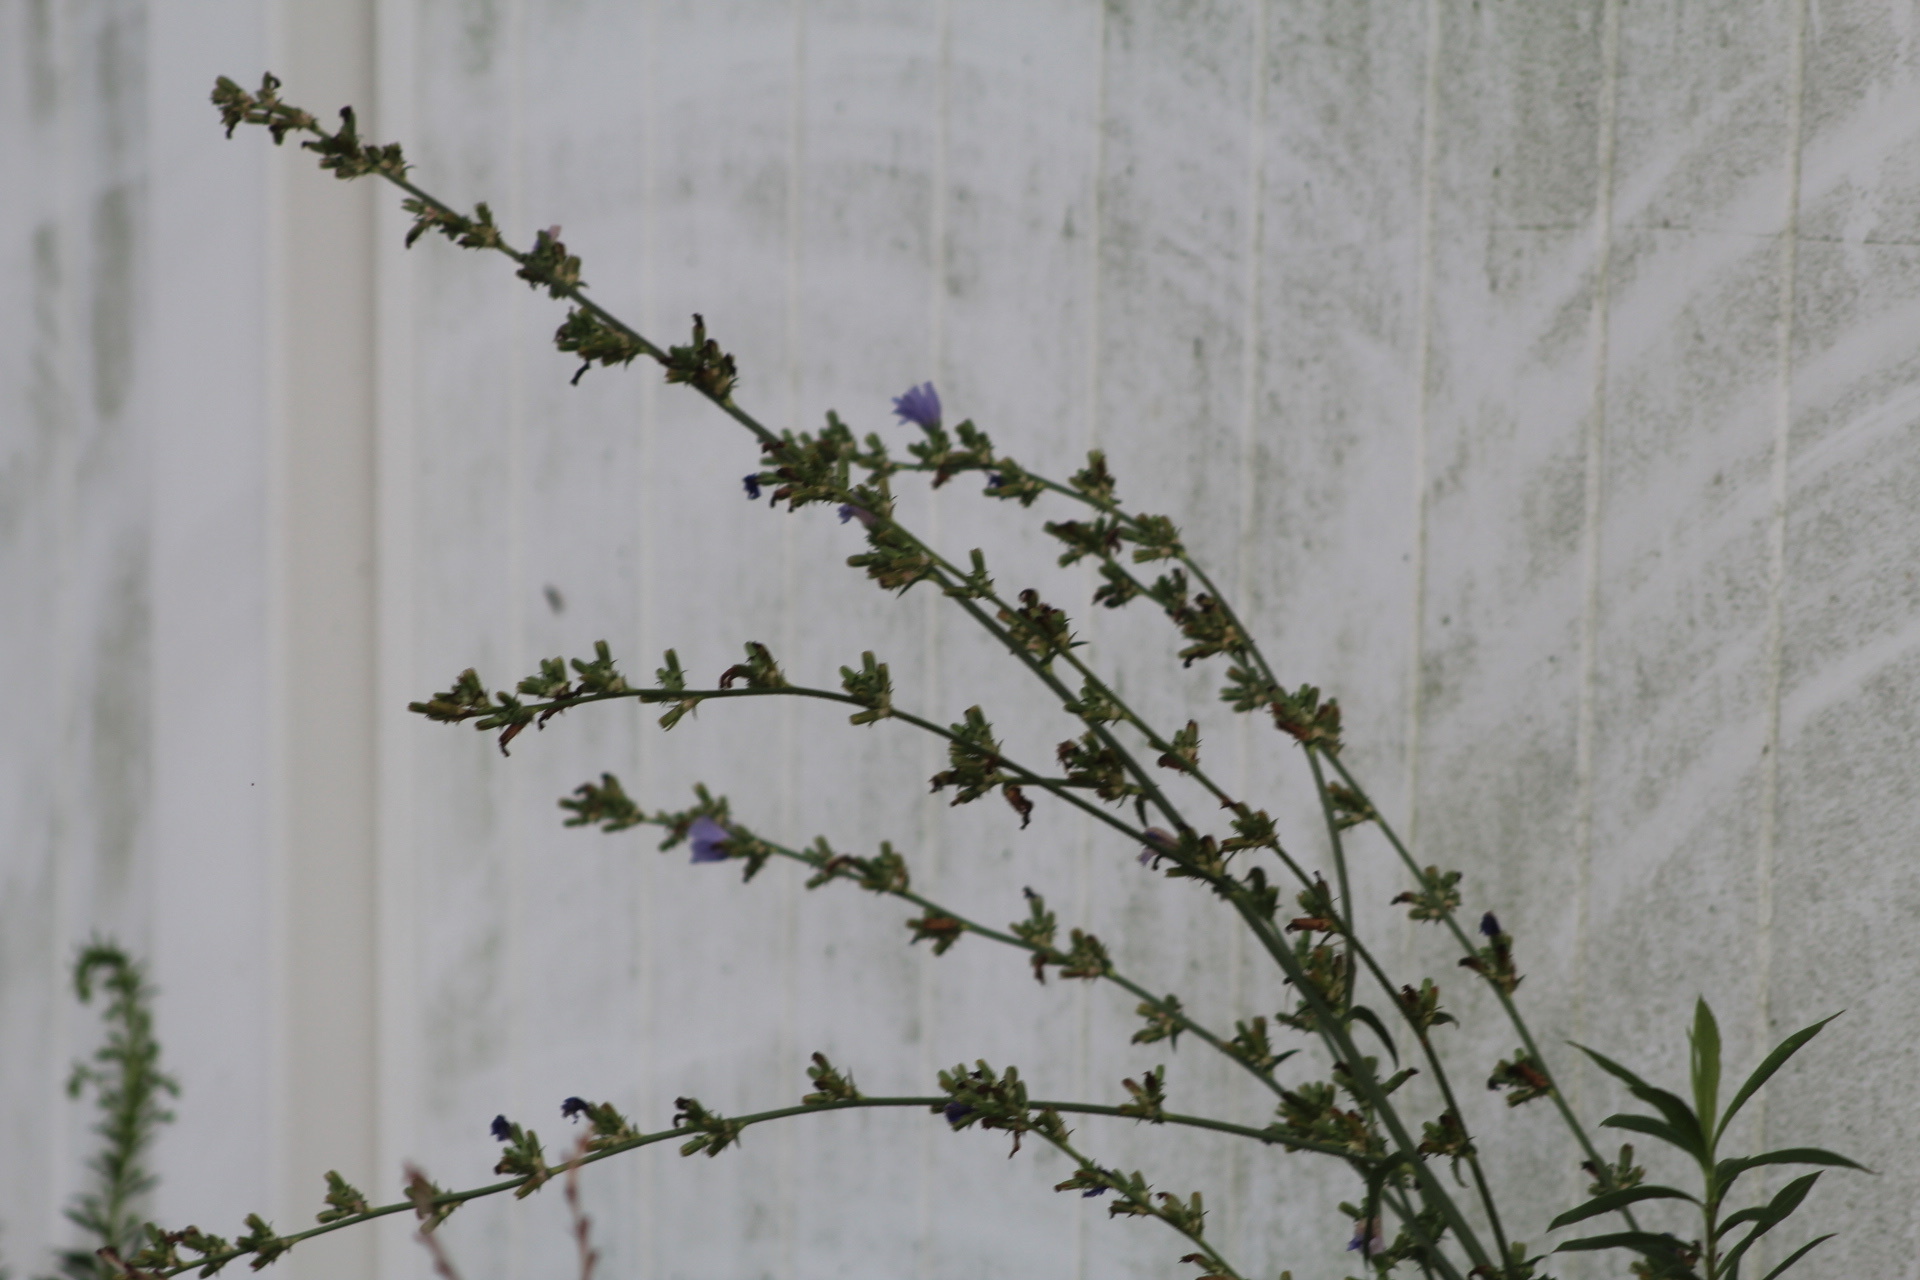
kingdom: Plantae
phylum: Tracheophyta
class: Magnoliopsida
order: Asterales
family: Asteraceae
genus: Cichorium
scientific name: Cichorium intybus
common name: Chicory
